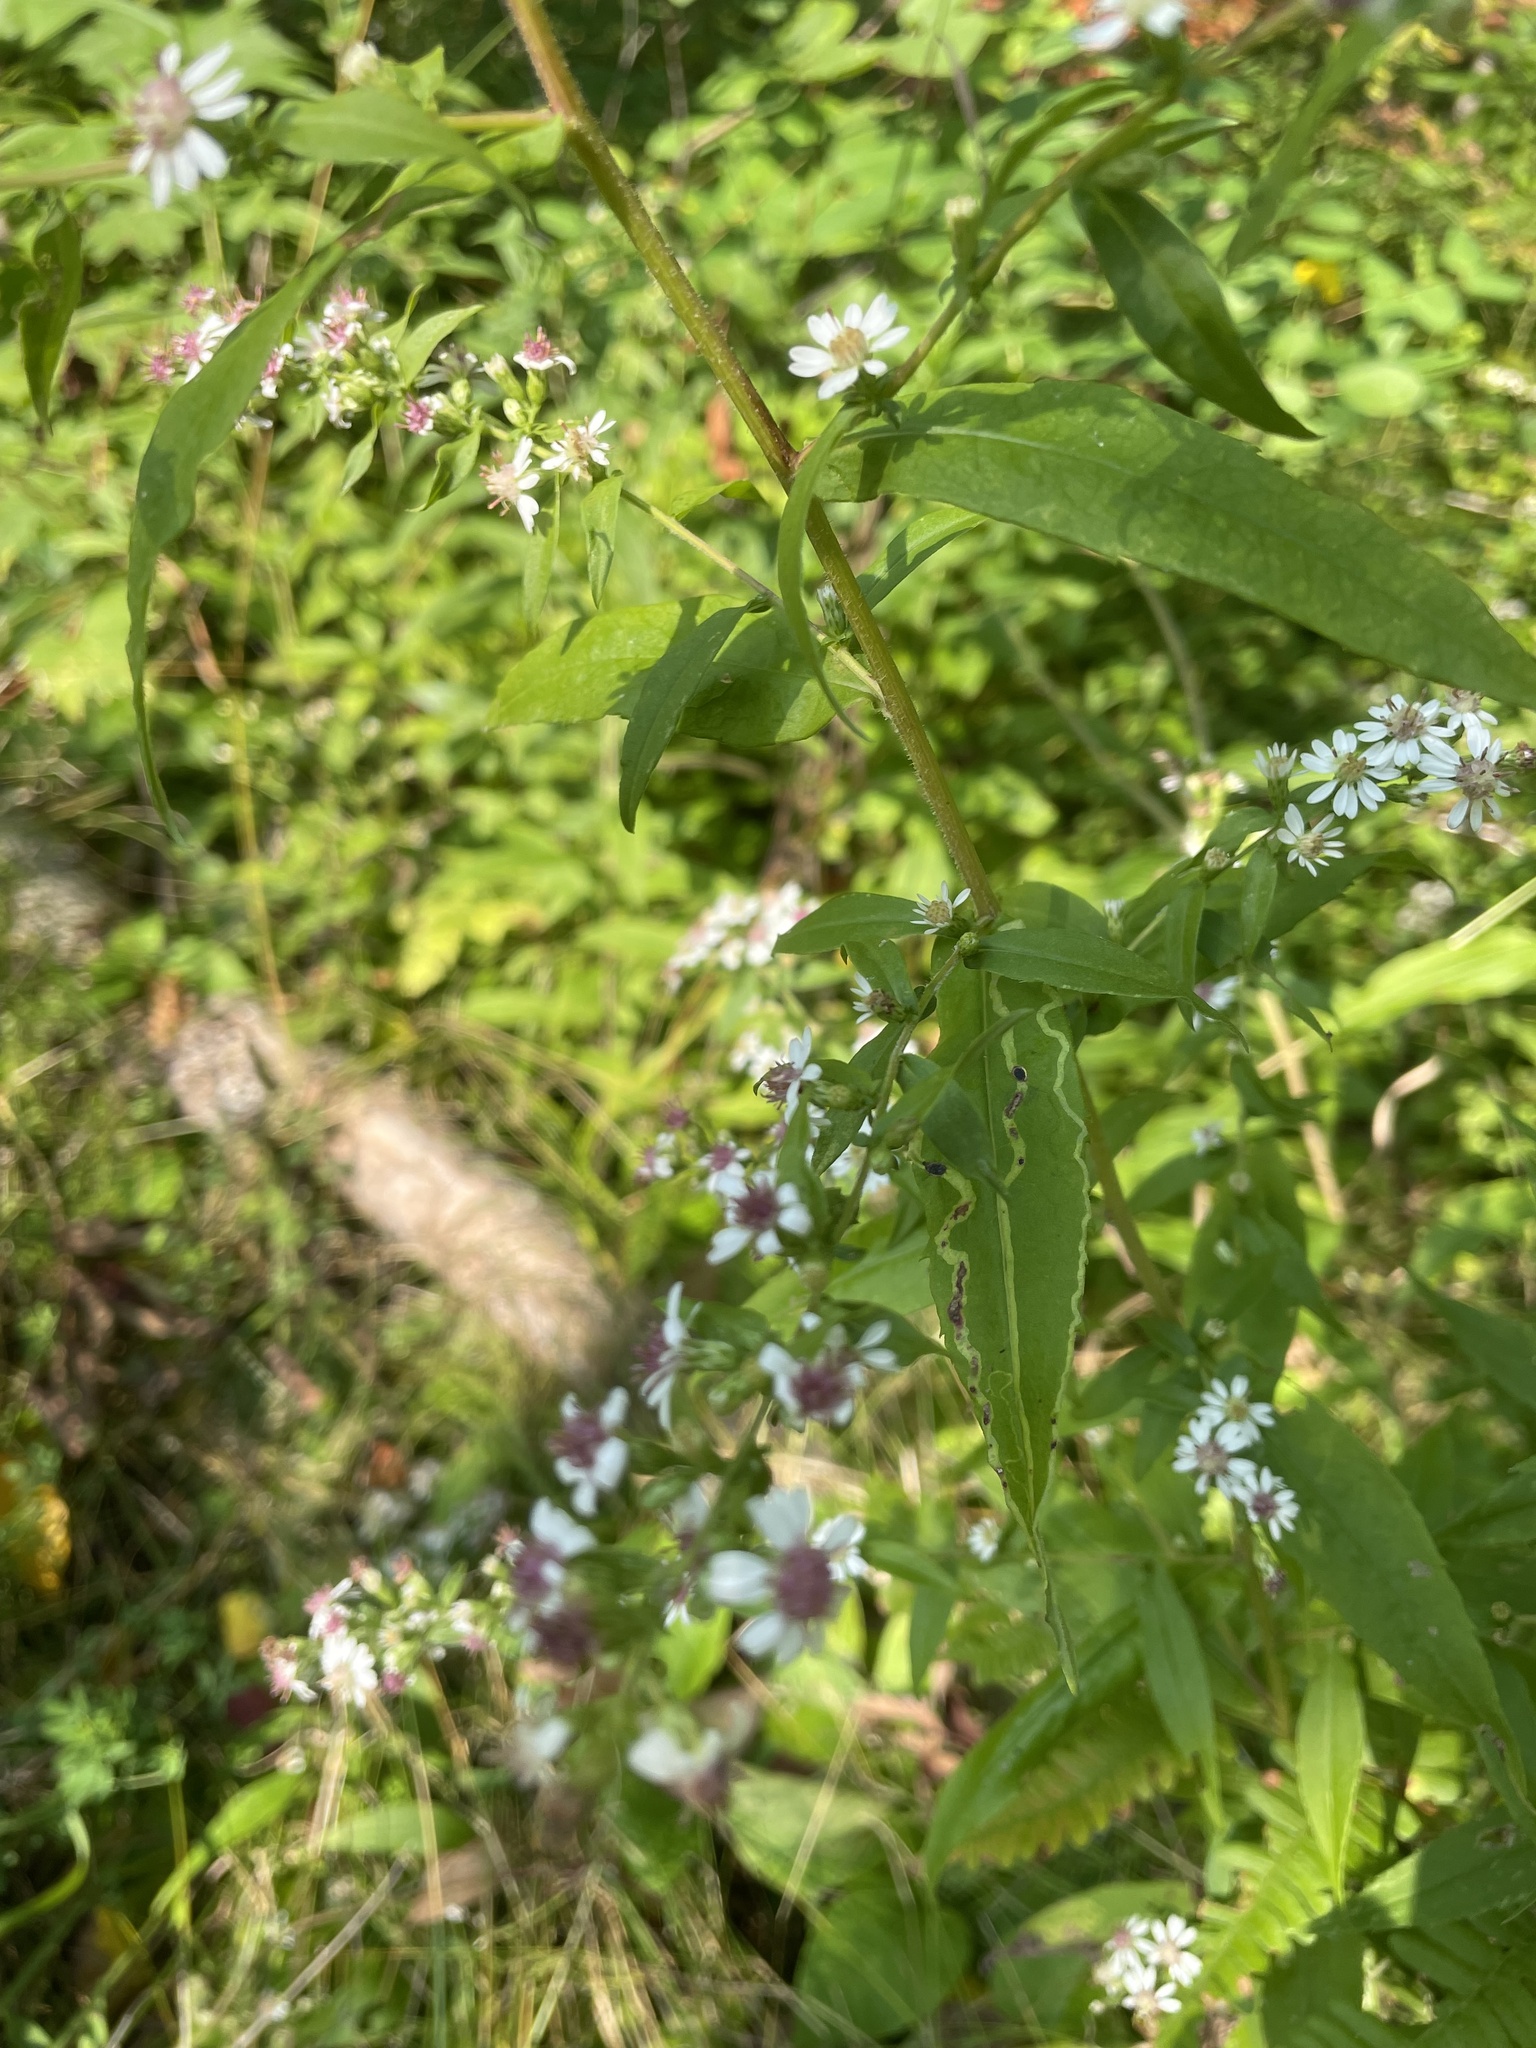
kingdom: Plantae
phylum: Tracheophyta
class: Magnoliopsida
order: Asterales
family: Asteraceae
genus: Symphyotrichum
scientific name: Symphyotrichum lateriflorum
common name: Calico aster
